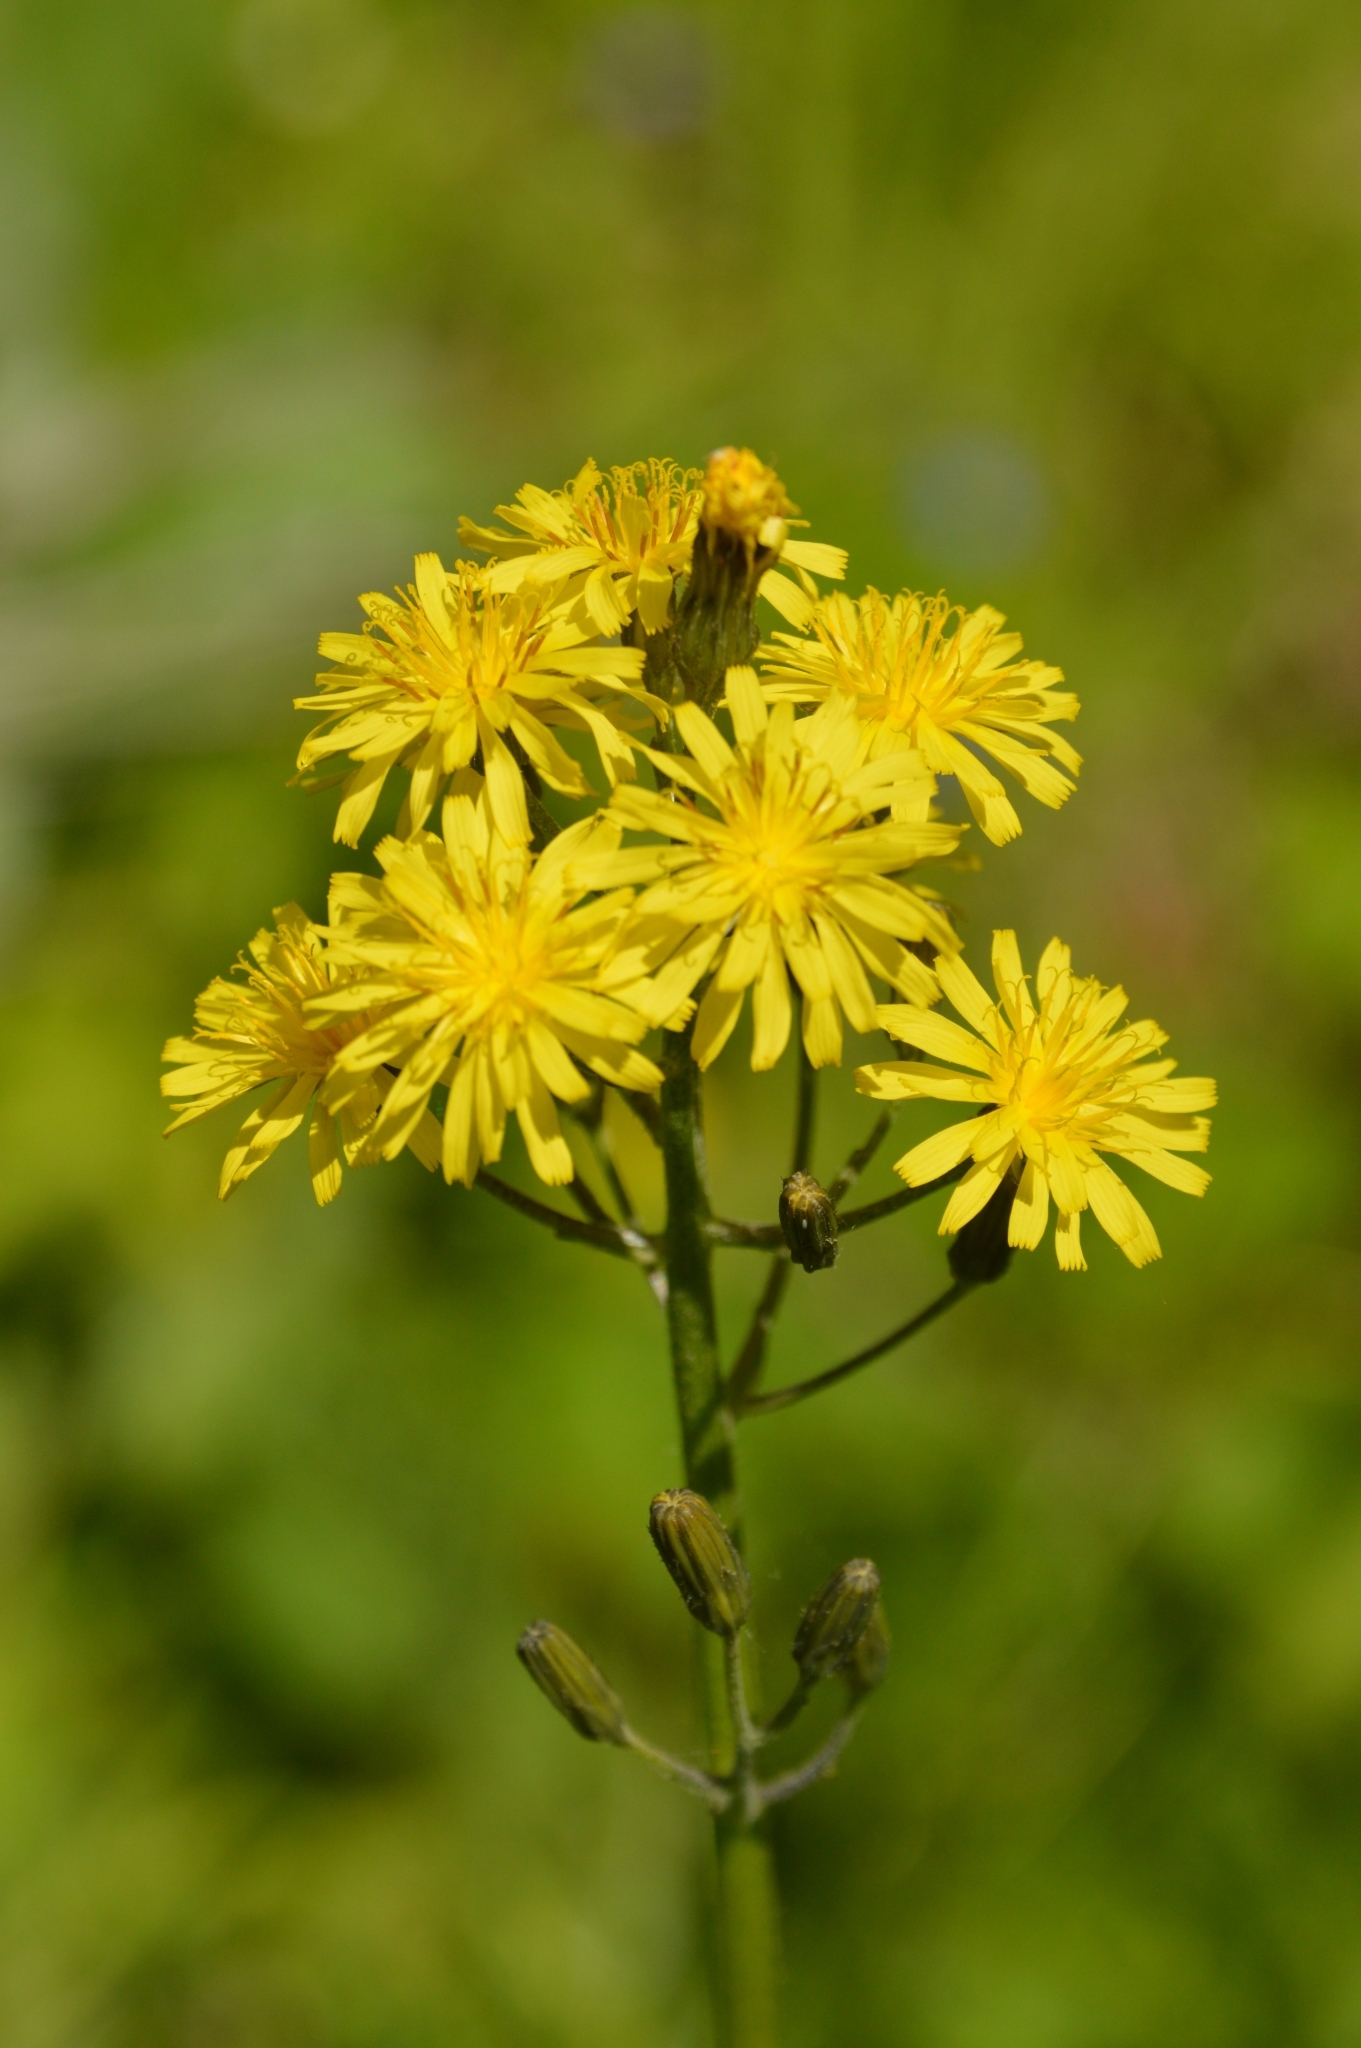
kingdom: Plantae
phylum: Tracheophyta
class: Magnoliopsida
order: Asterales
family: Asteraceae
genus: Crepis
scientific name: Crepis praemorsa
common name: Leafless hawk's-beard
